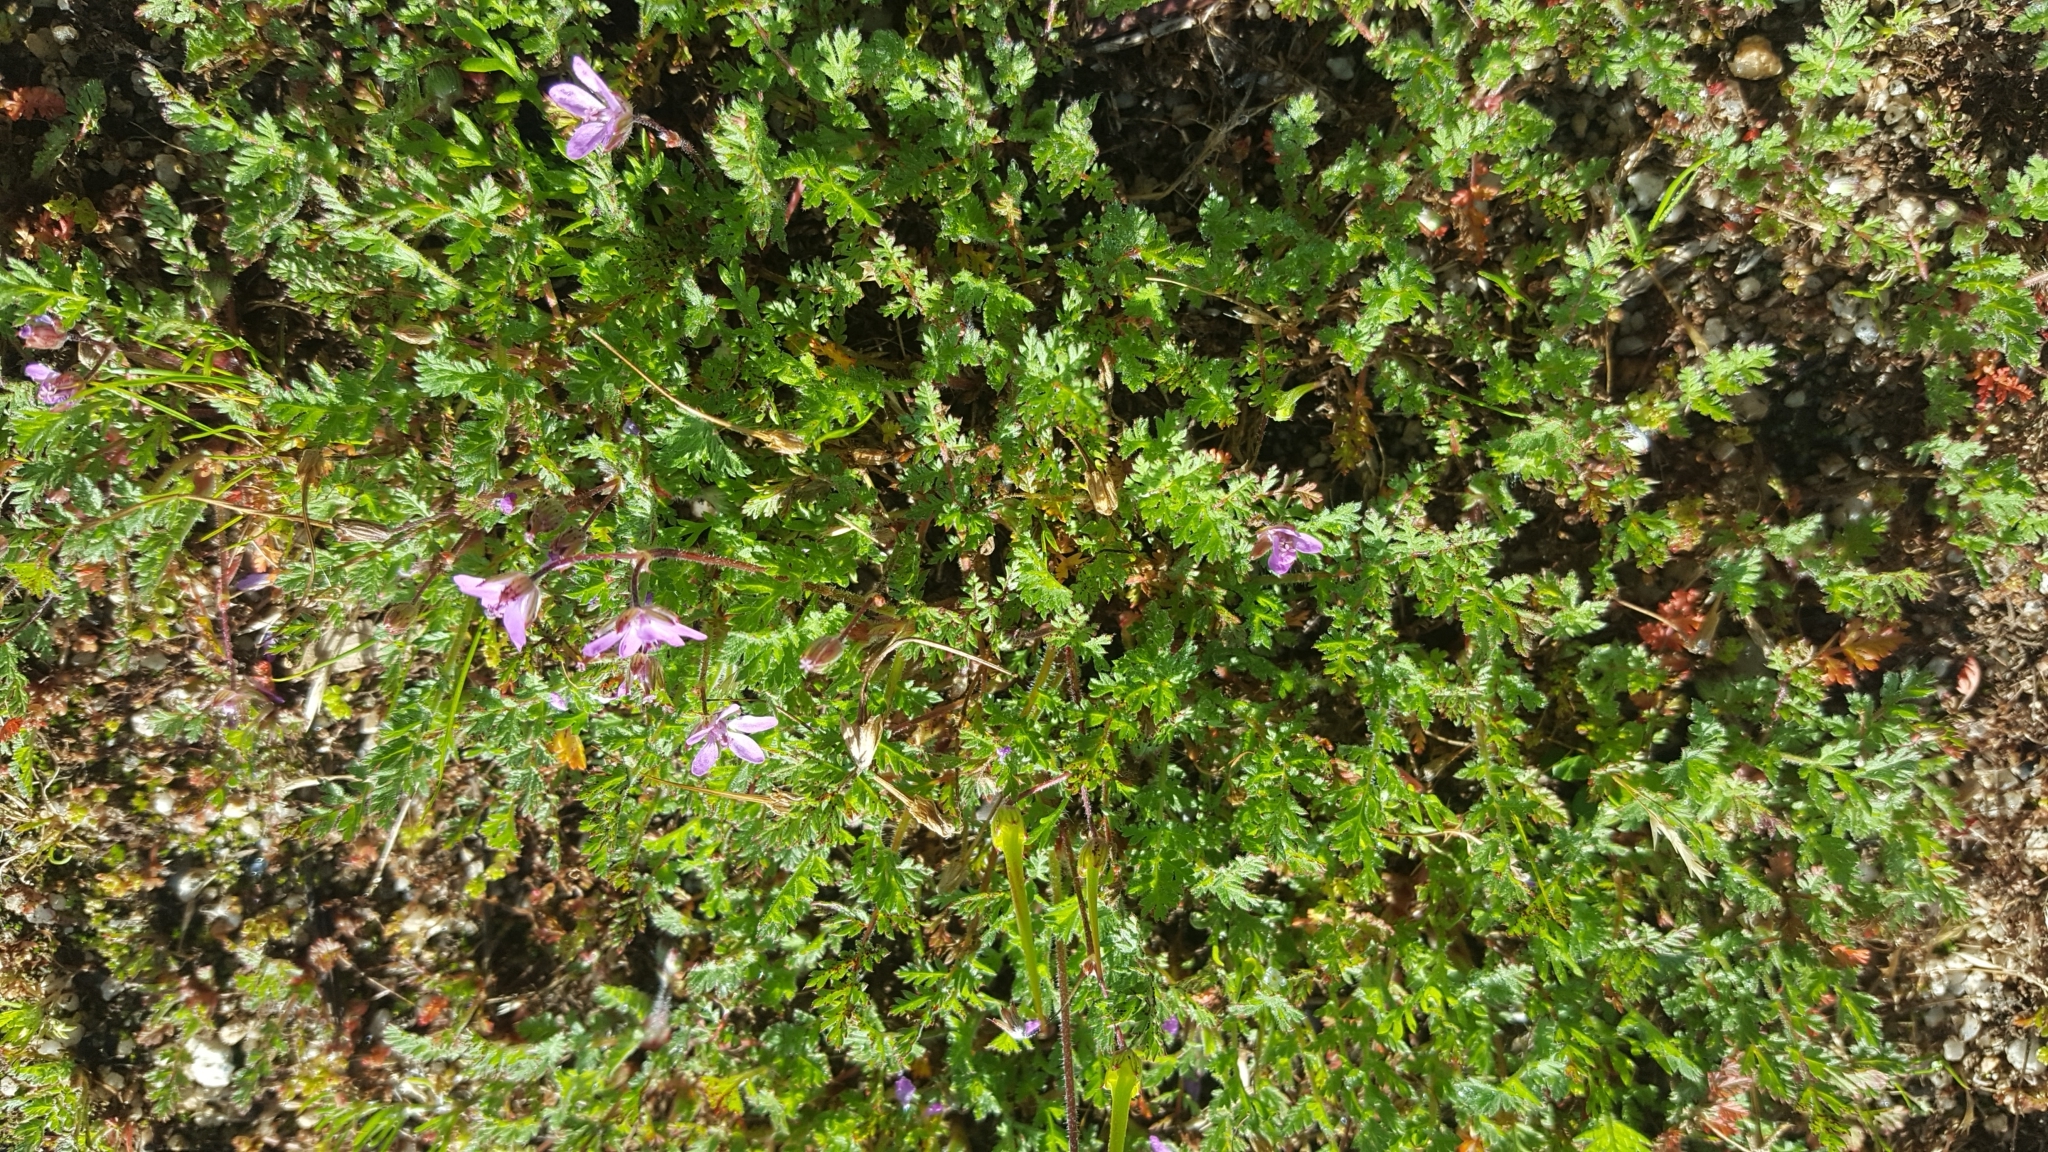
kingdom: Plantae
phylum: Tracheophyta
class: Magnoliopsida
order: Geraniales
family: Geraniaceae
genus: Erodium
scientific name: Erodium cicutarium
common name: Common stork's-bill
